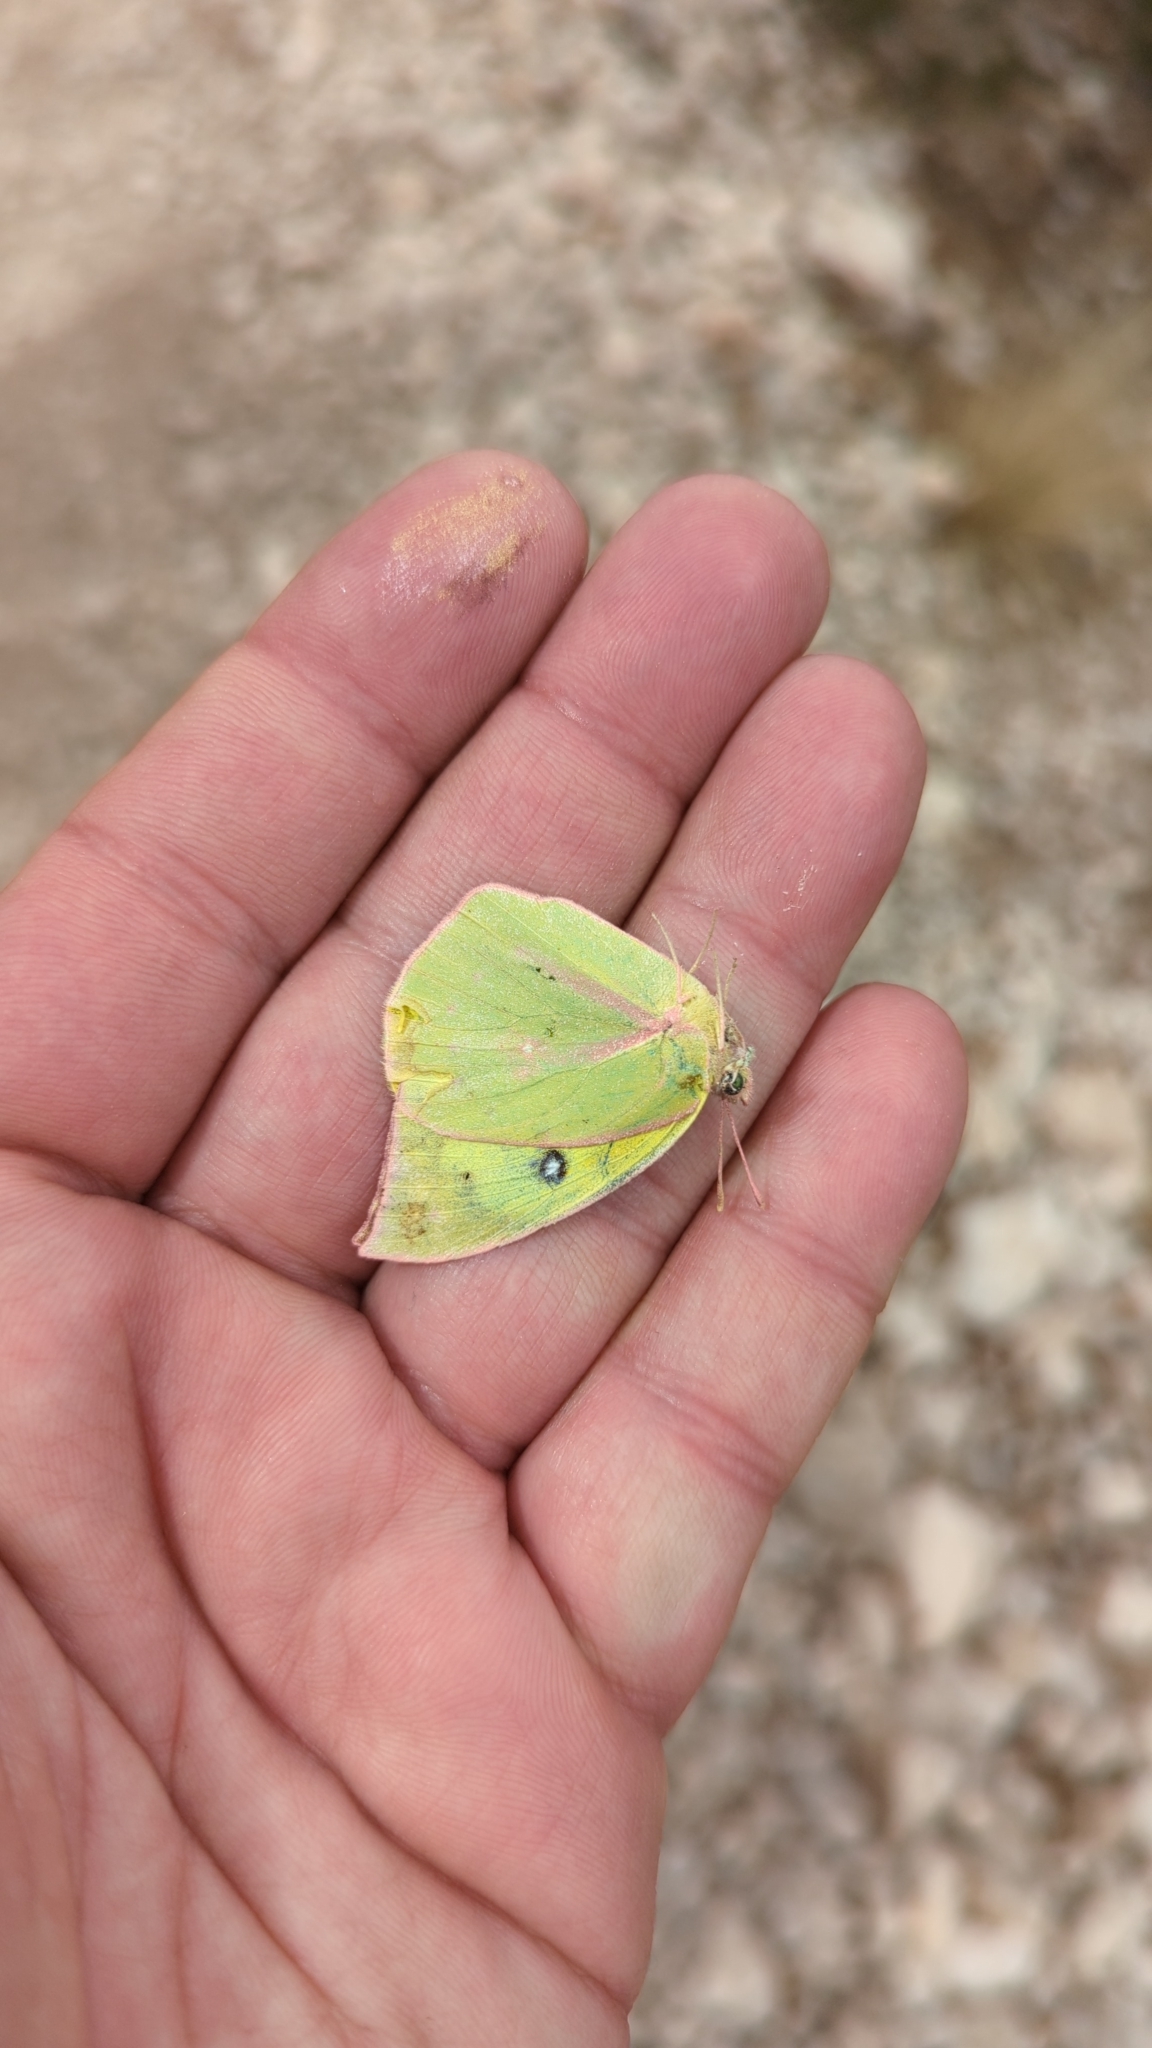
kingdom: Animalia
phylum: Arthropoda
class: Insecta
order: Lepidoptera
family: Pieridae
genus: Zerene
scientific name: Zerene cesonia
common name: Southern dogface
